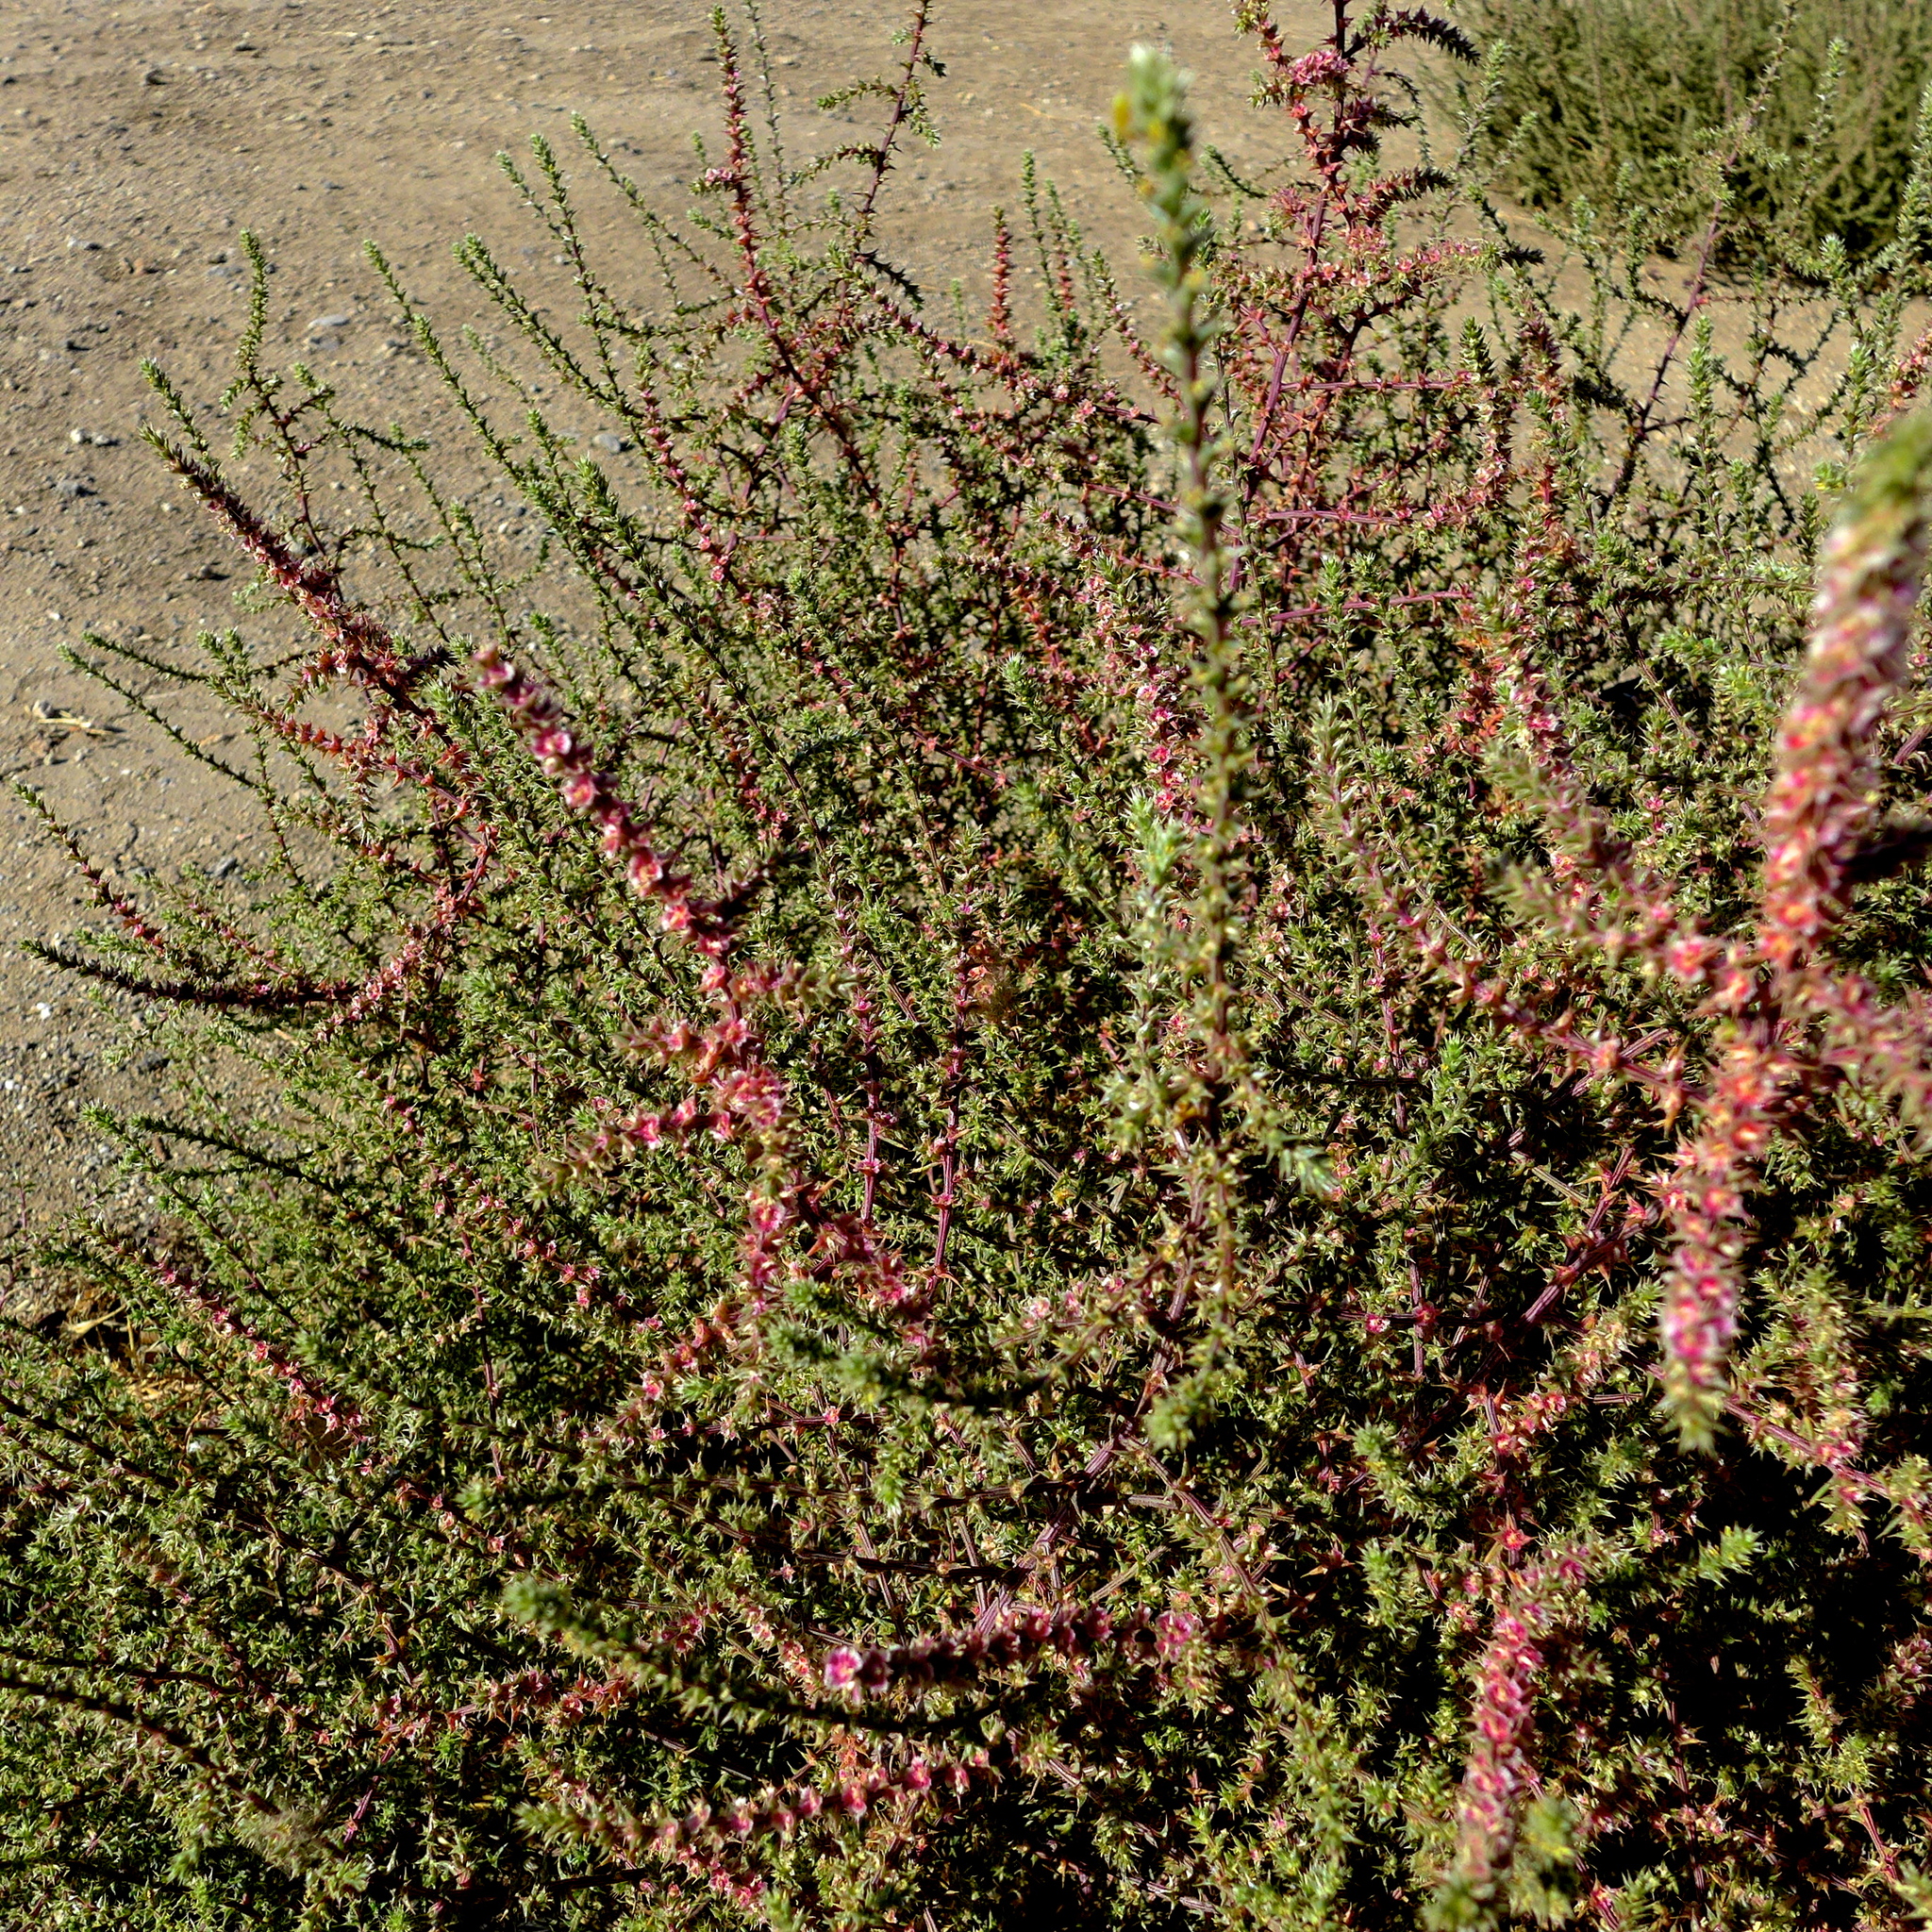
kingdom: Plantae
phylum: Tracheophyta
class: Magnoliopsida
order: Caryophyllales
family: Amaranthaceae
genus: Salsola
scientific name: Salsola paulsenii
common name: Barbwire russian thistle
